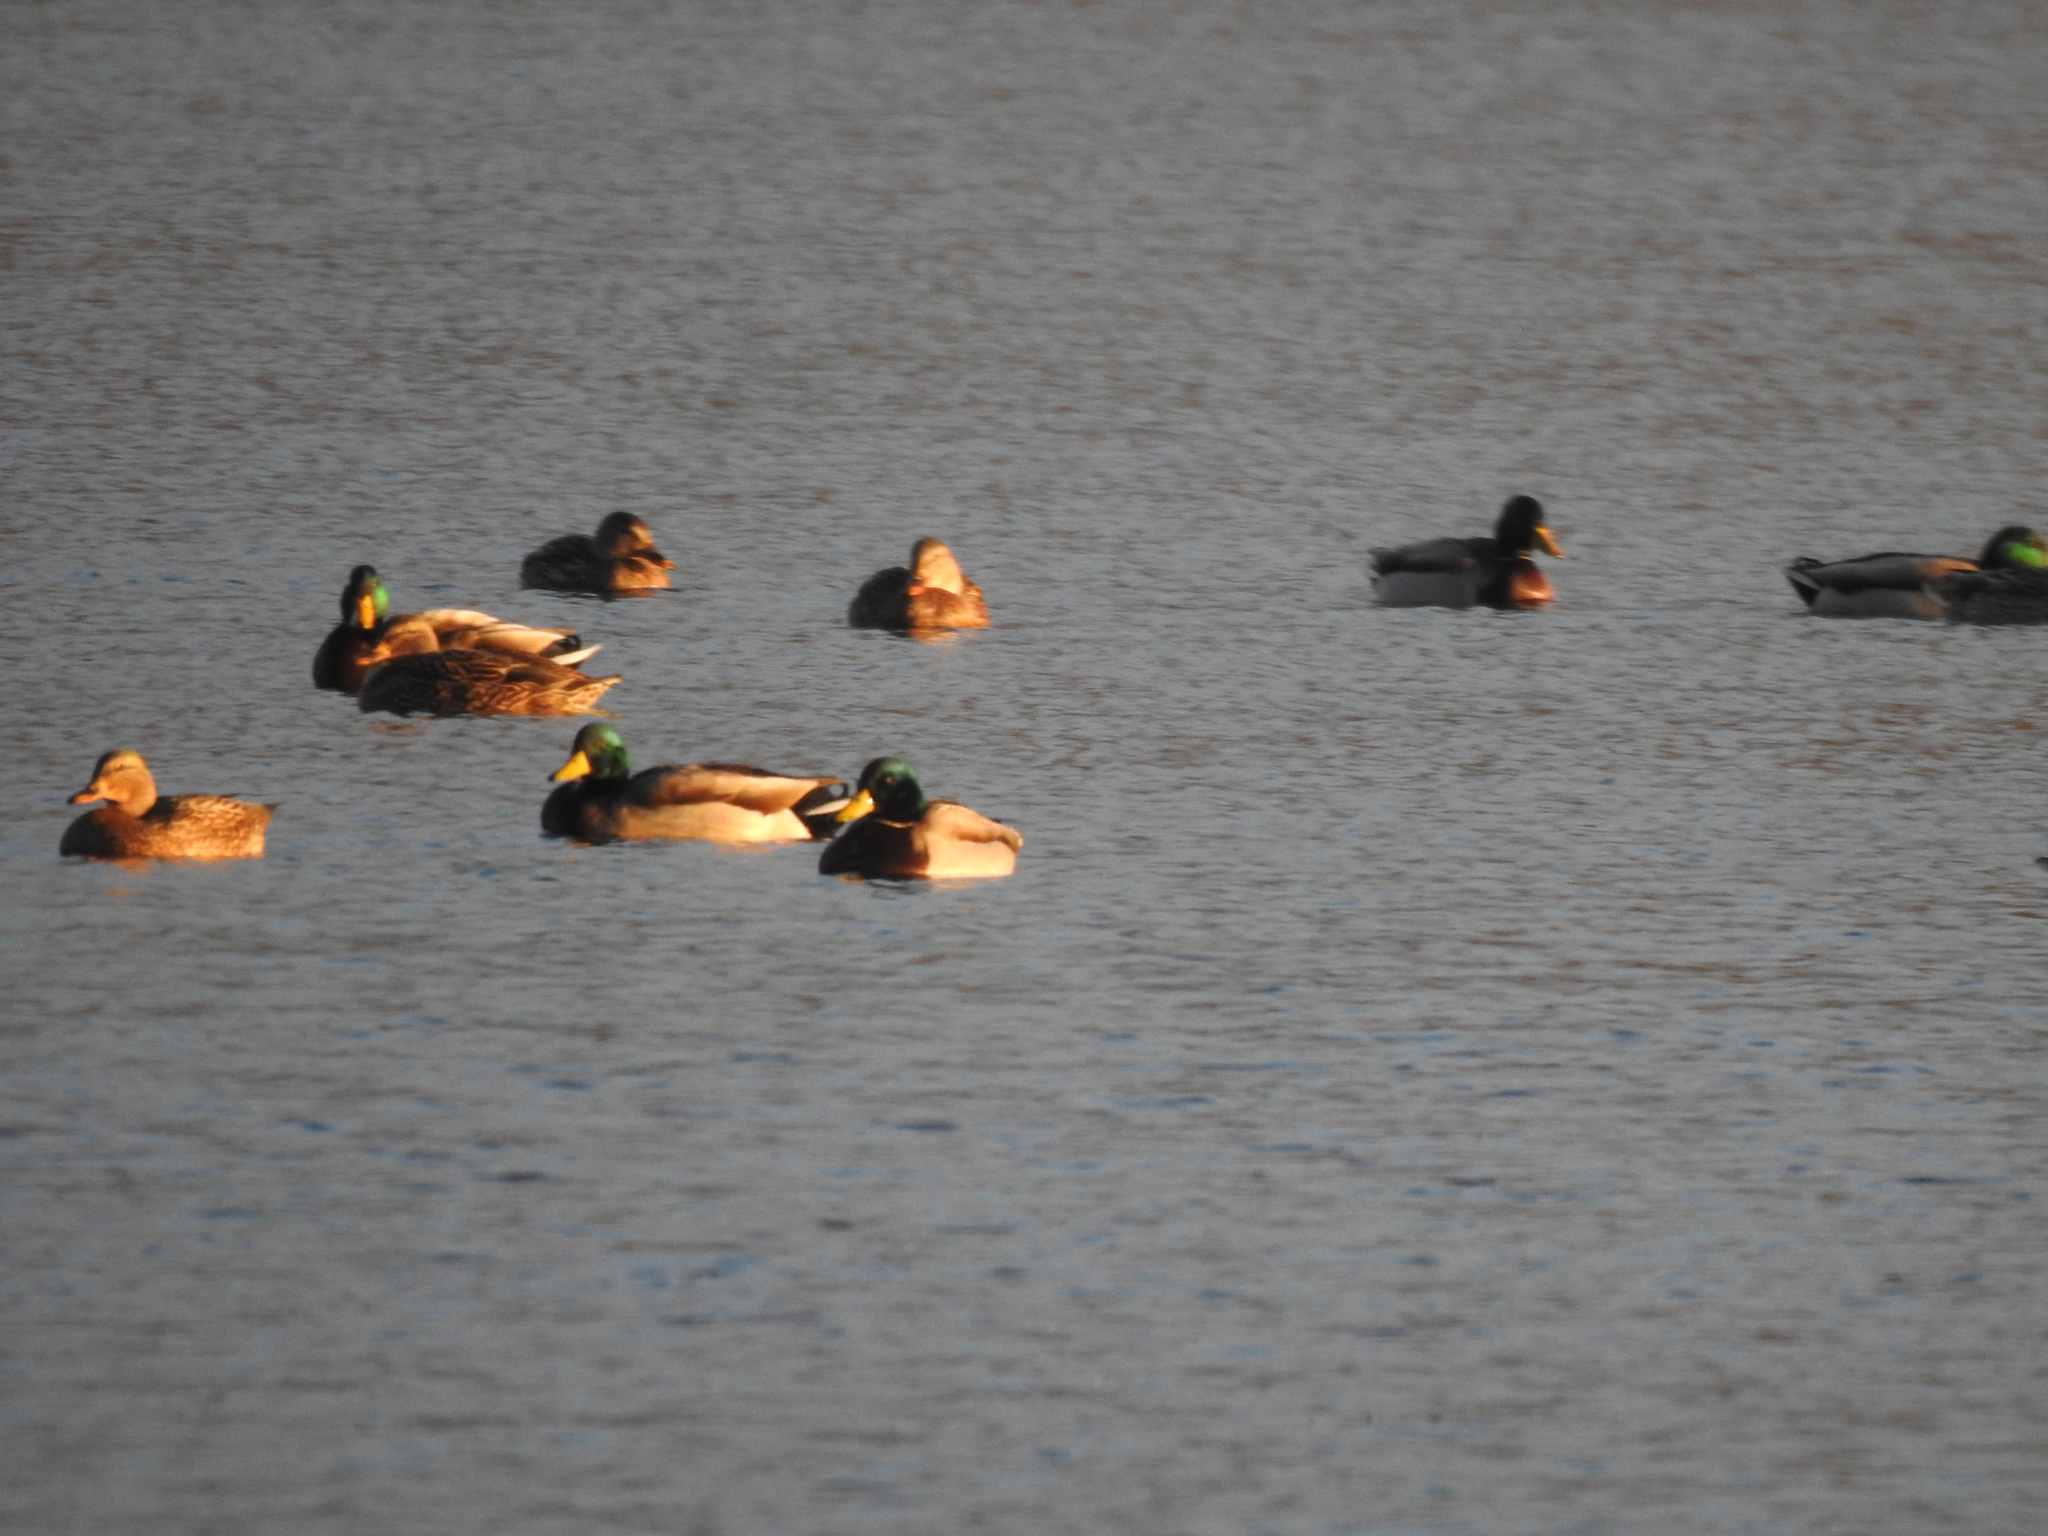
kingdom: Animalia
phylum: Chordata
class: Aves
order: Anseriformes
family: Anatidae
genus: Anas
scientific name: Anas platyrhynchos
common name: Mallard
